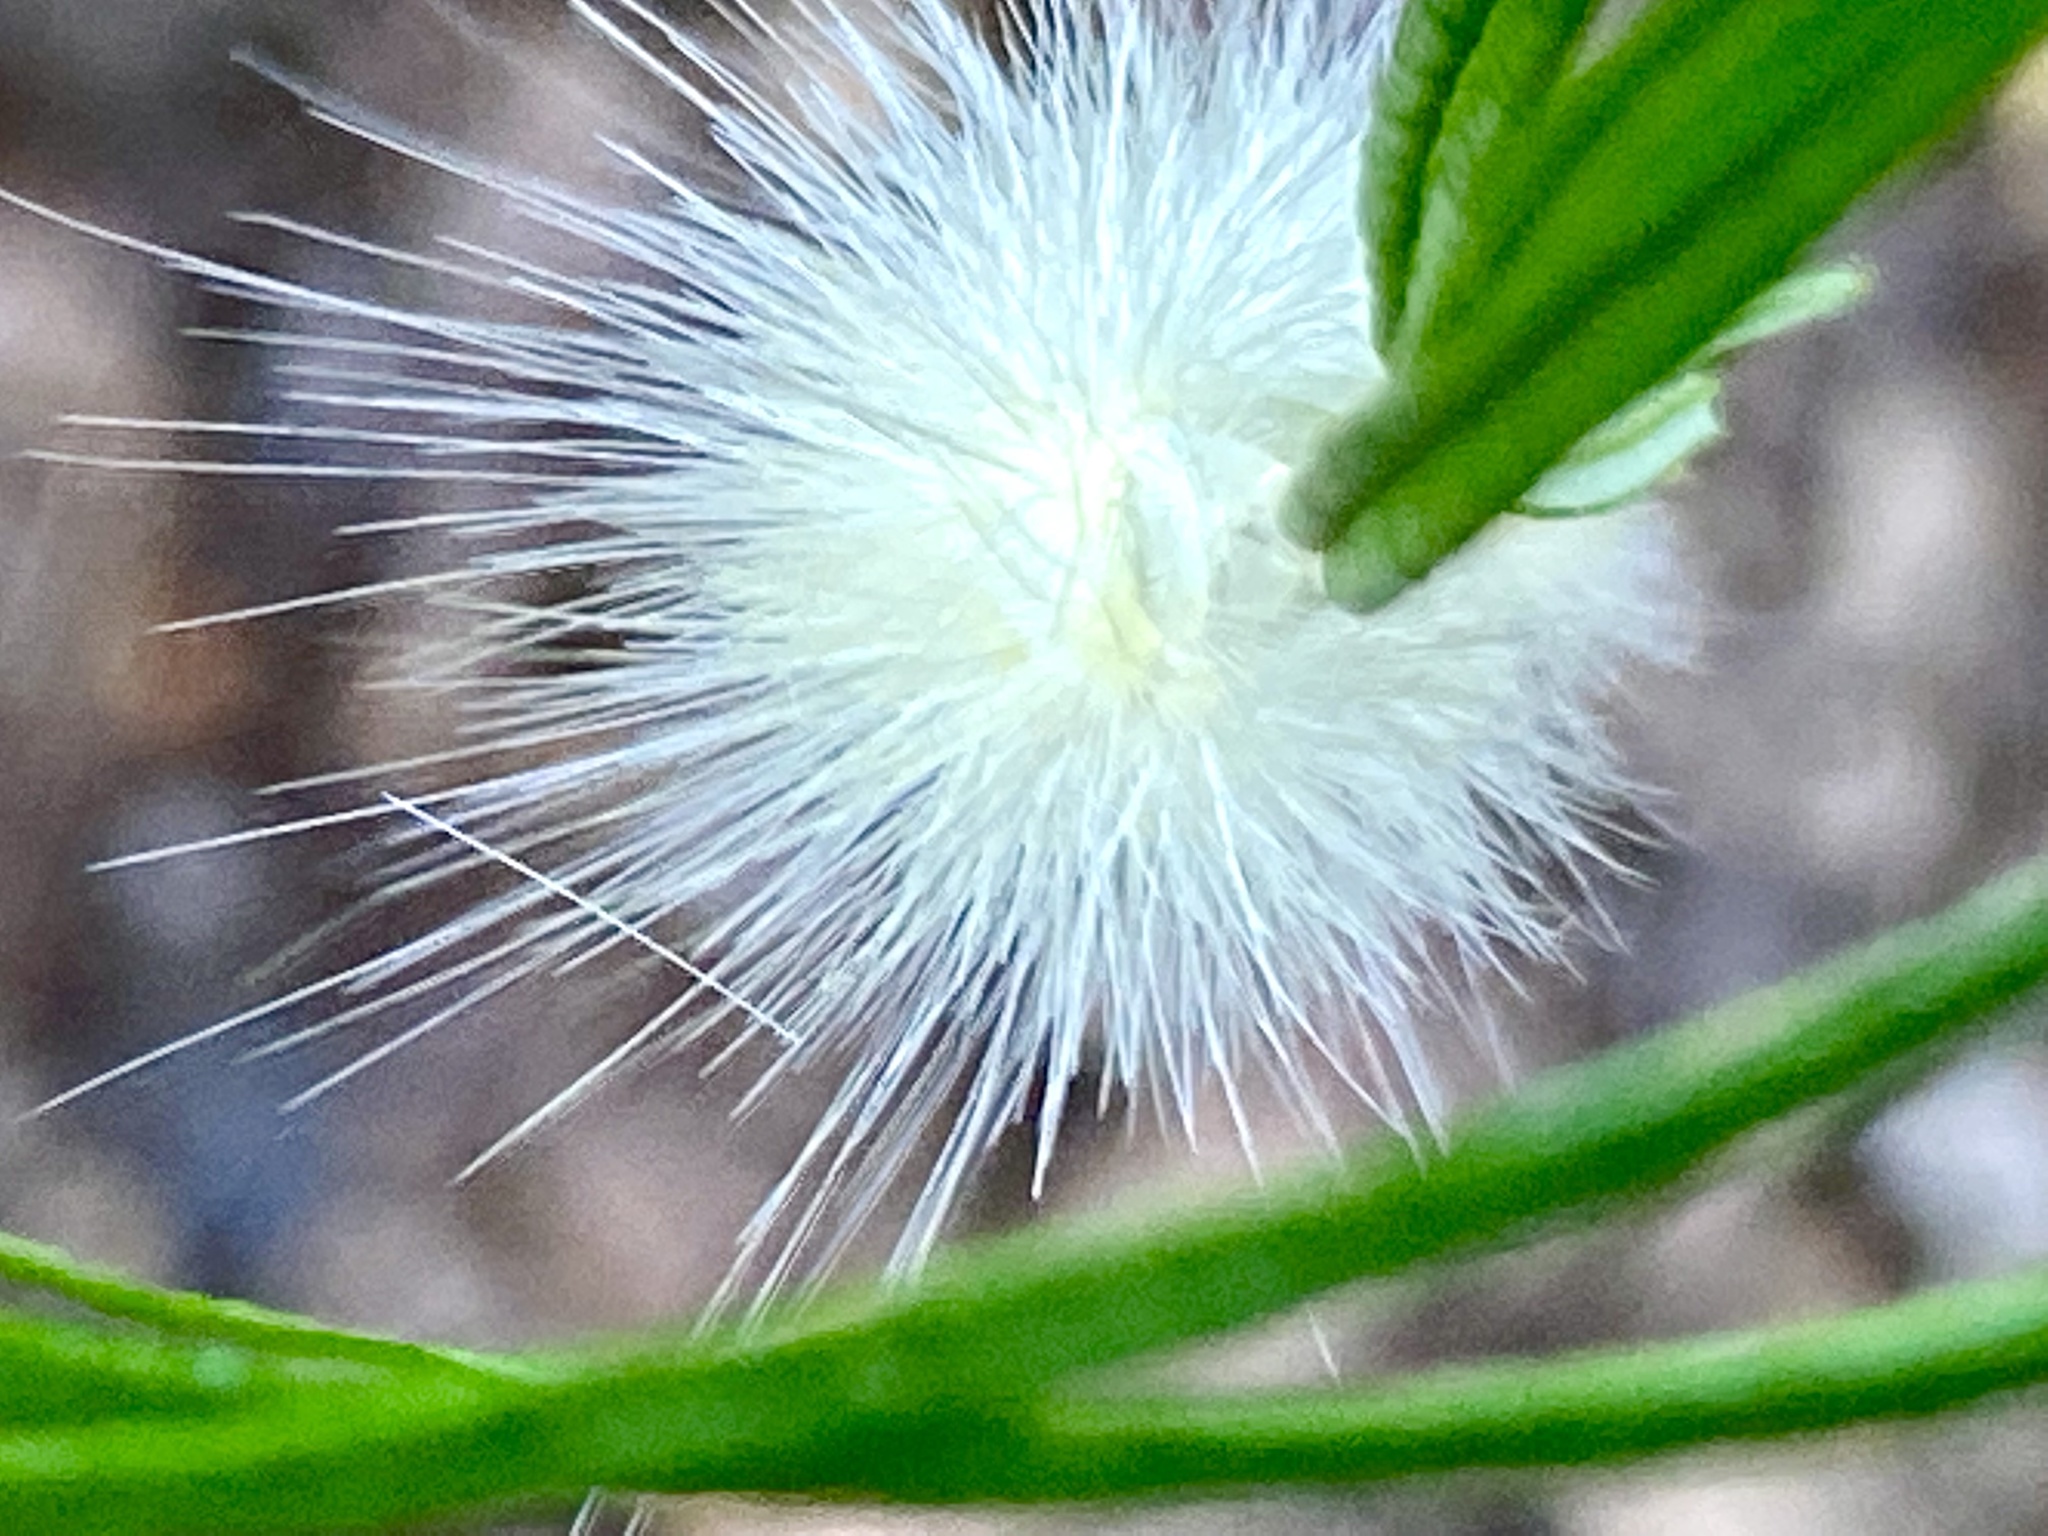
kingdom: Animalia
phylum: Arthropoda
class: Insecta
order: Lepidoptera
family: Erebidae
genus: Spilosoma
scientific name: Spilosoma virginica
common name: Virginia tiger moth
